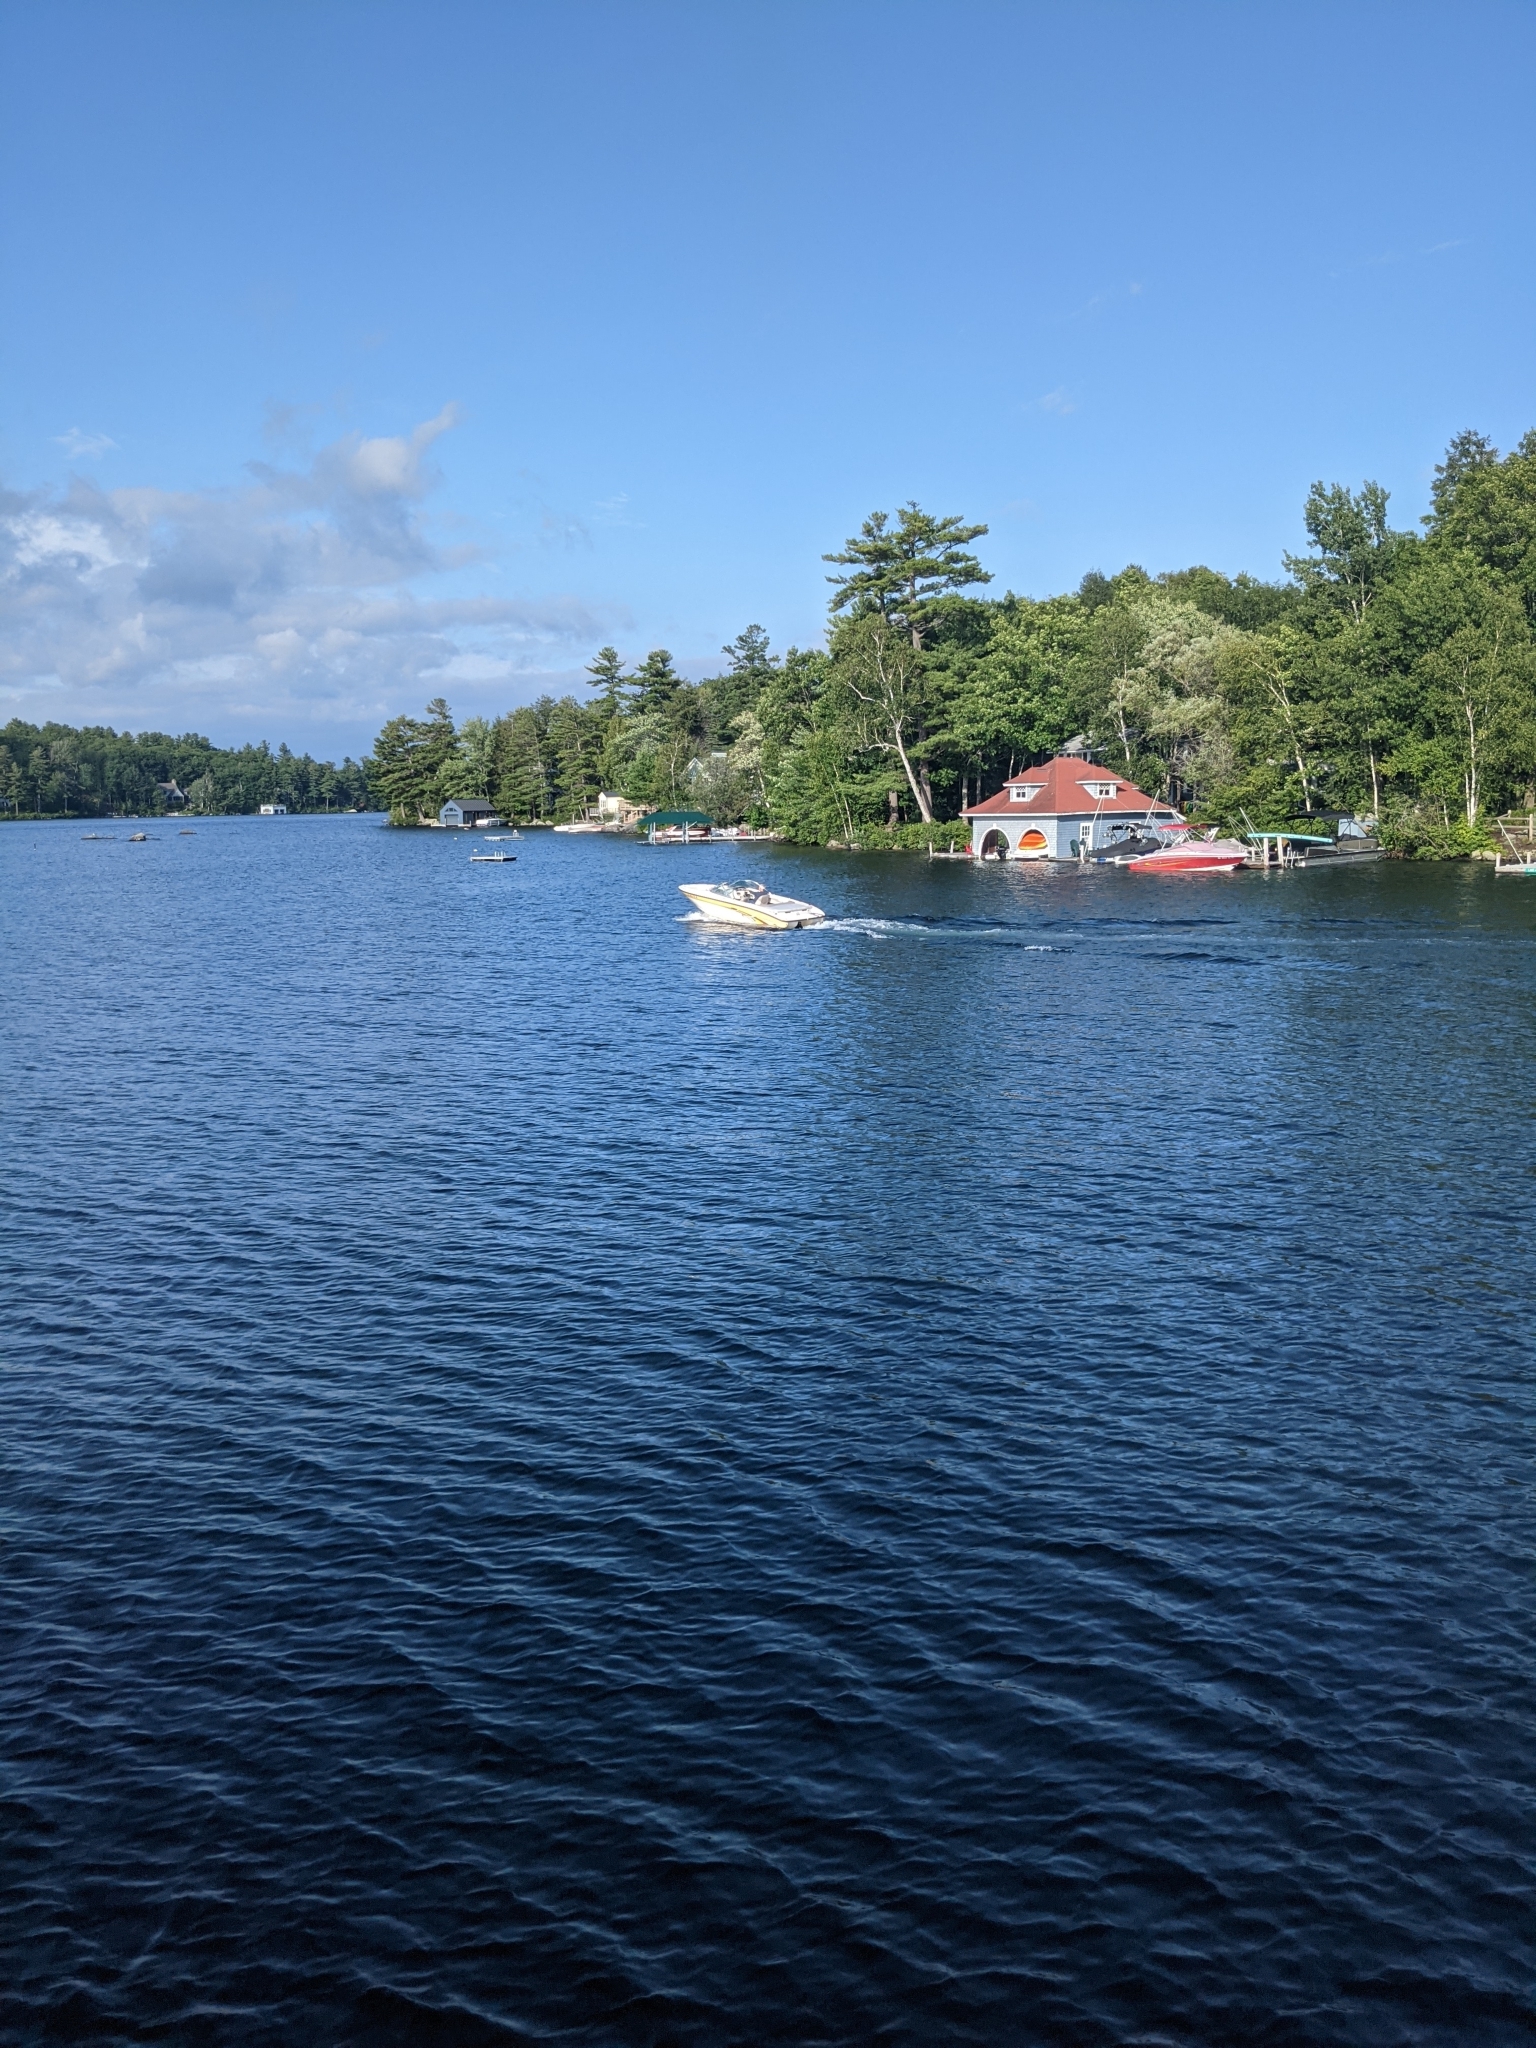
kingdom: Plantae
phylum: Tracheophyta
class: Pinopsida
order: Pinales
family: Pinaceae
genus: Pinus
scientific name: Pinus strobus
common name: Weymouth pine
